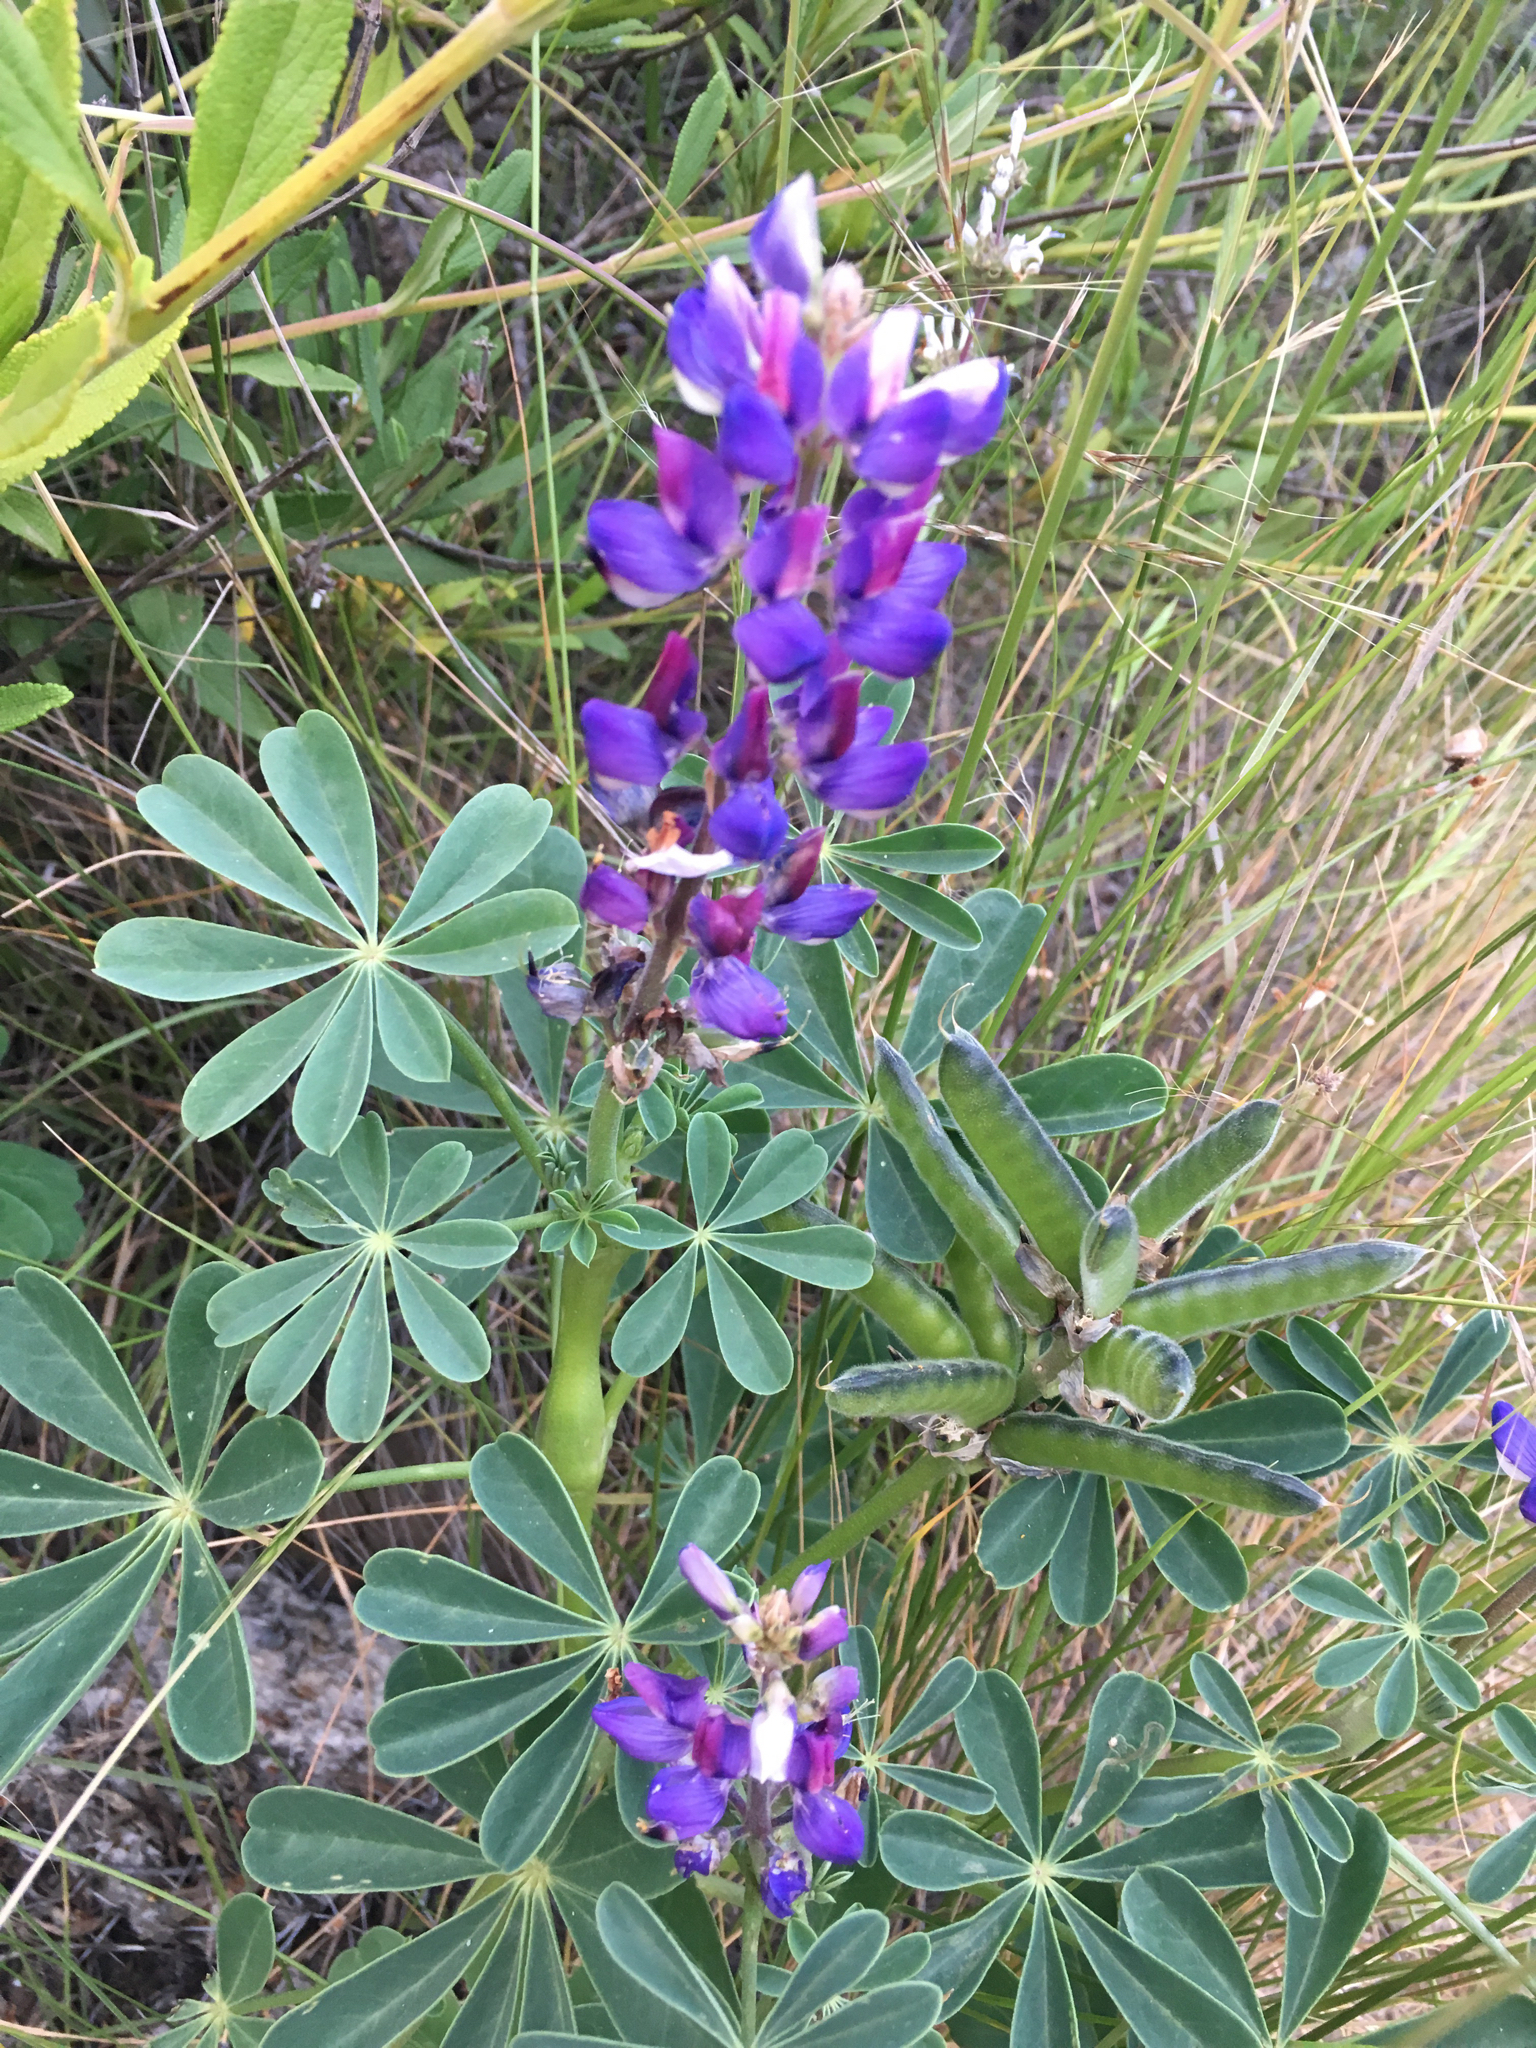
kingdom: Plantae
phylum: Tracheophyta
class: Magnoliopsida
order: Fabales
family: Fabaceae
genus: Lupinus
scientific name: Lupinus succulentus
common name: Arroyo lupine
